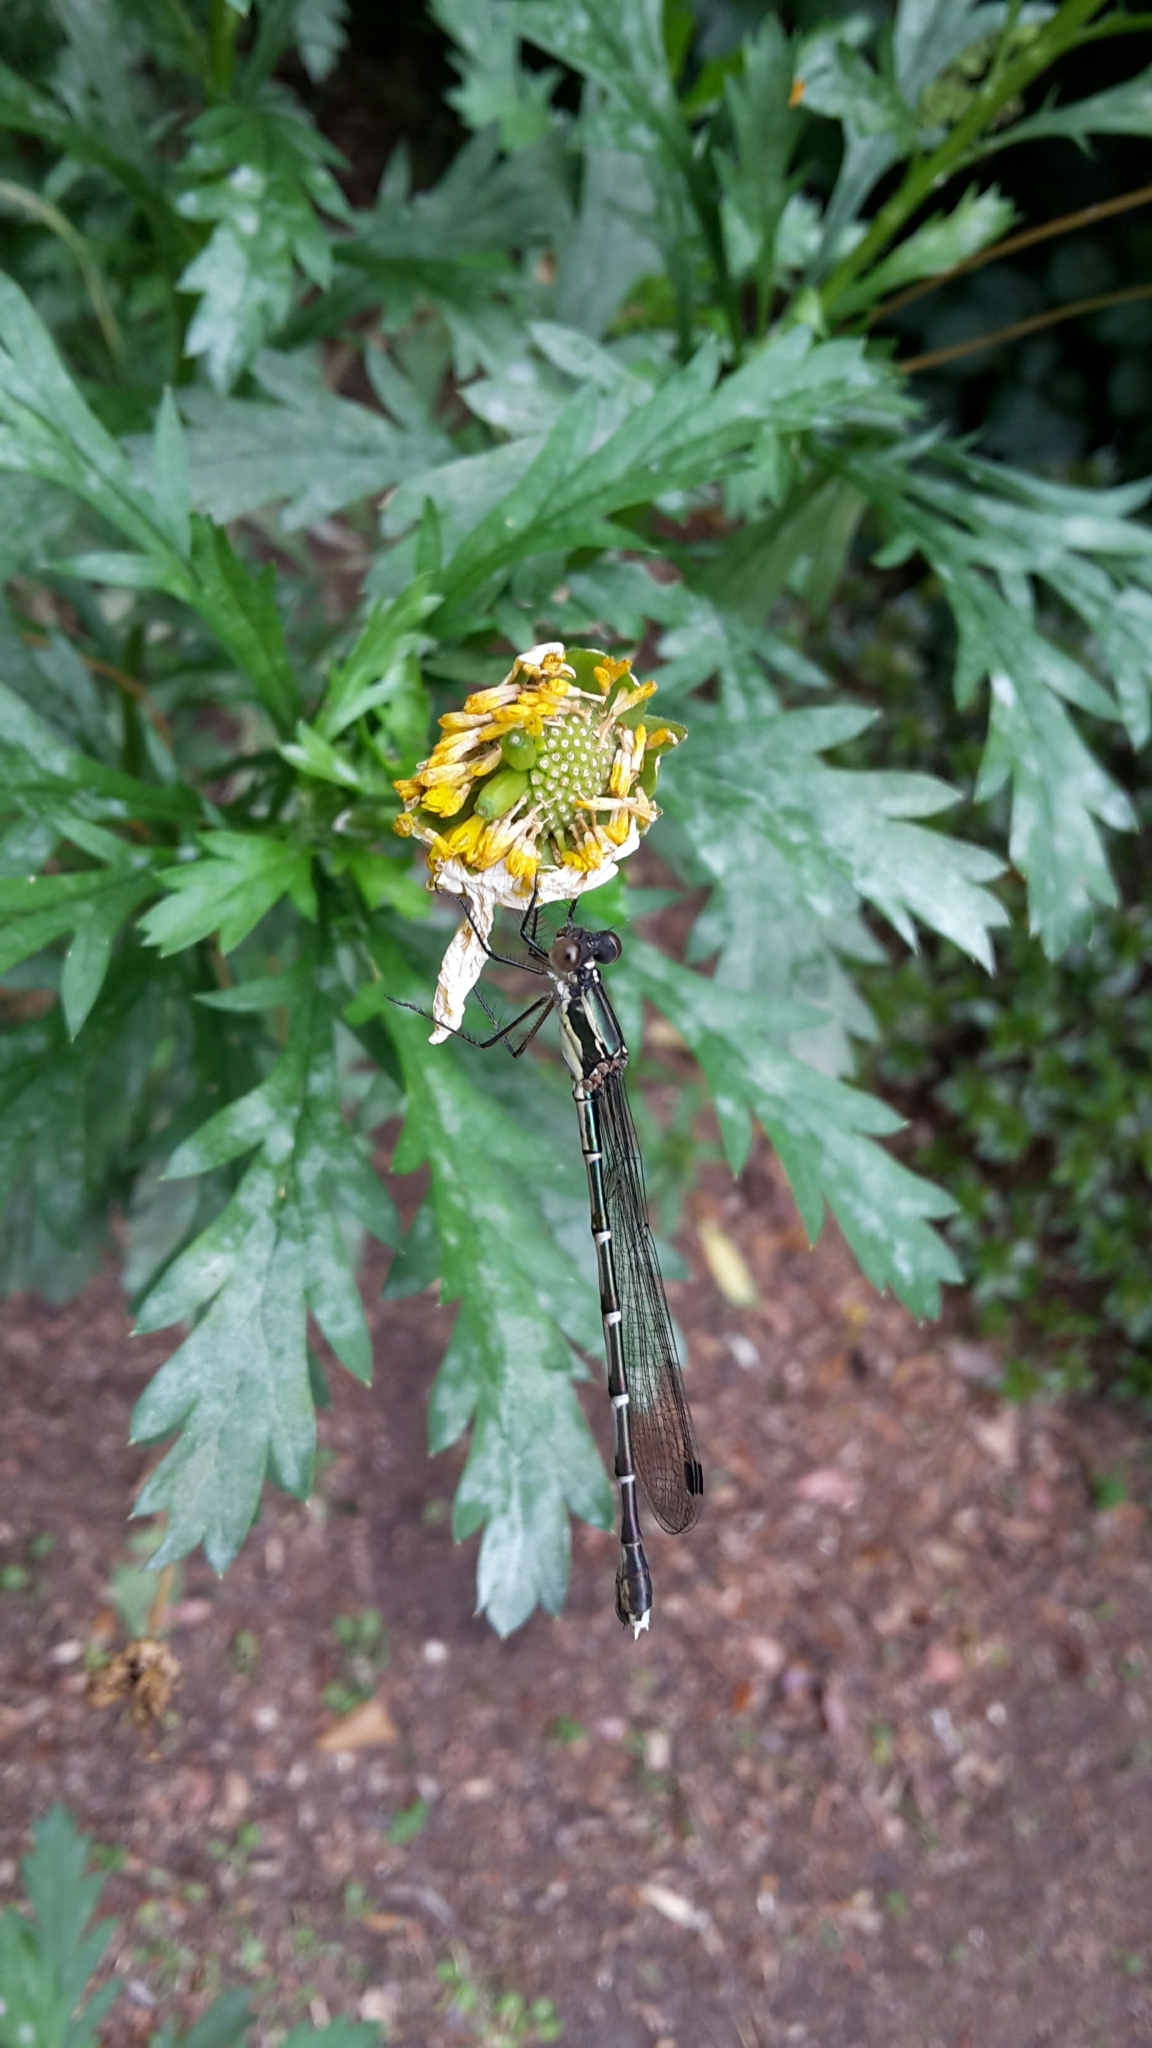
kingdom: Animalia
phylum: Arthropoda
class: Insecta
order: Odonata
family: Lestidae
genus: Austrolestes
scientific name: Austrolestes colensonis
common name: Blue damselfly
